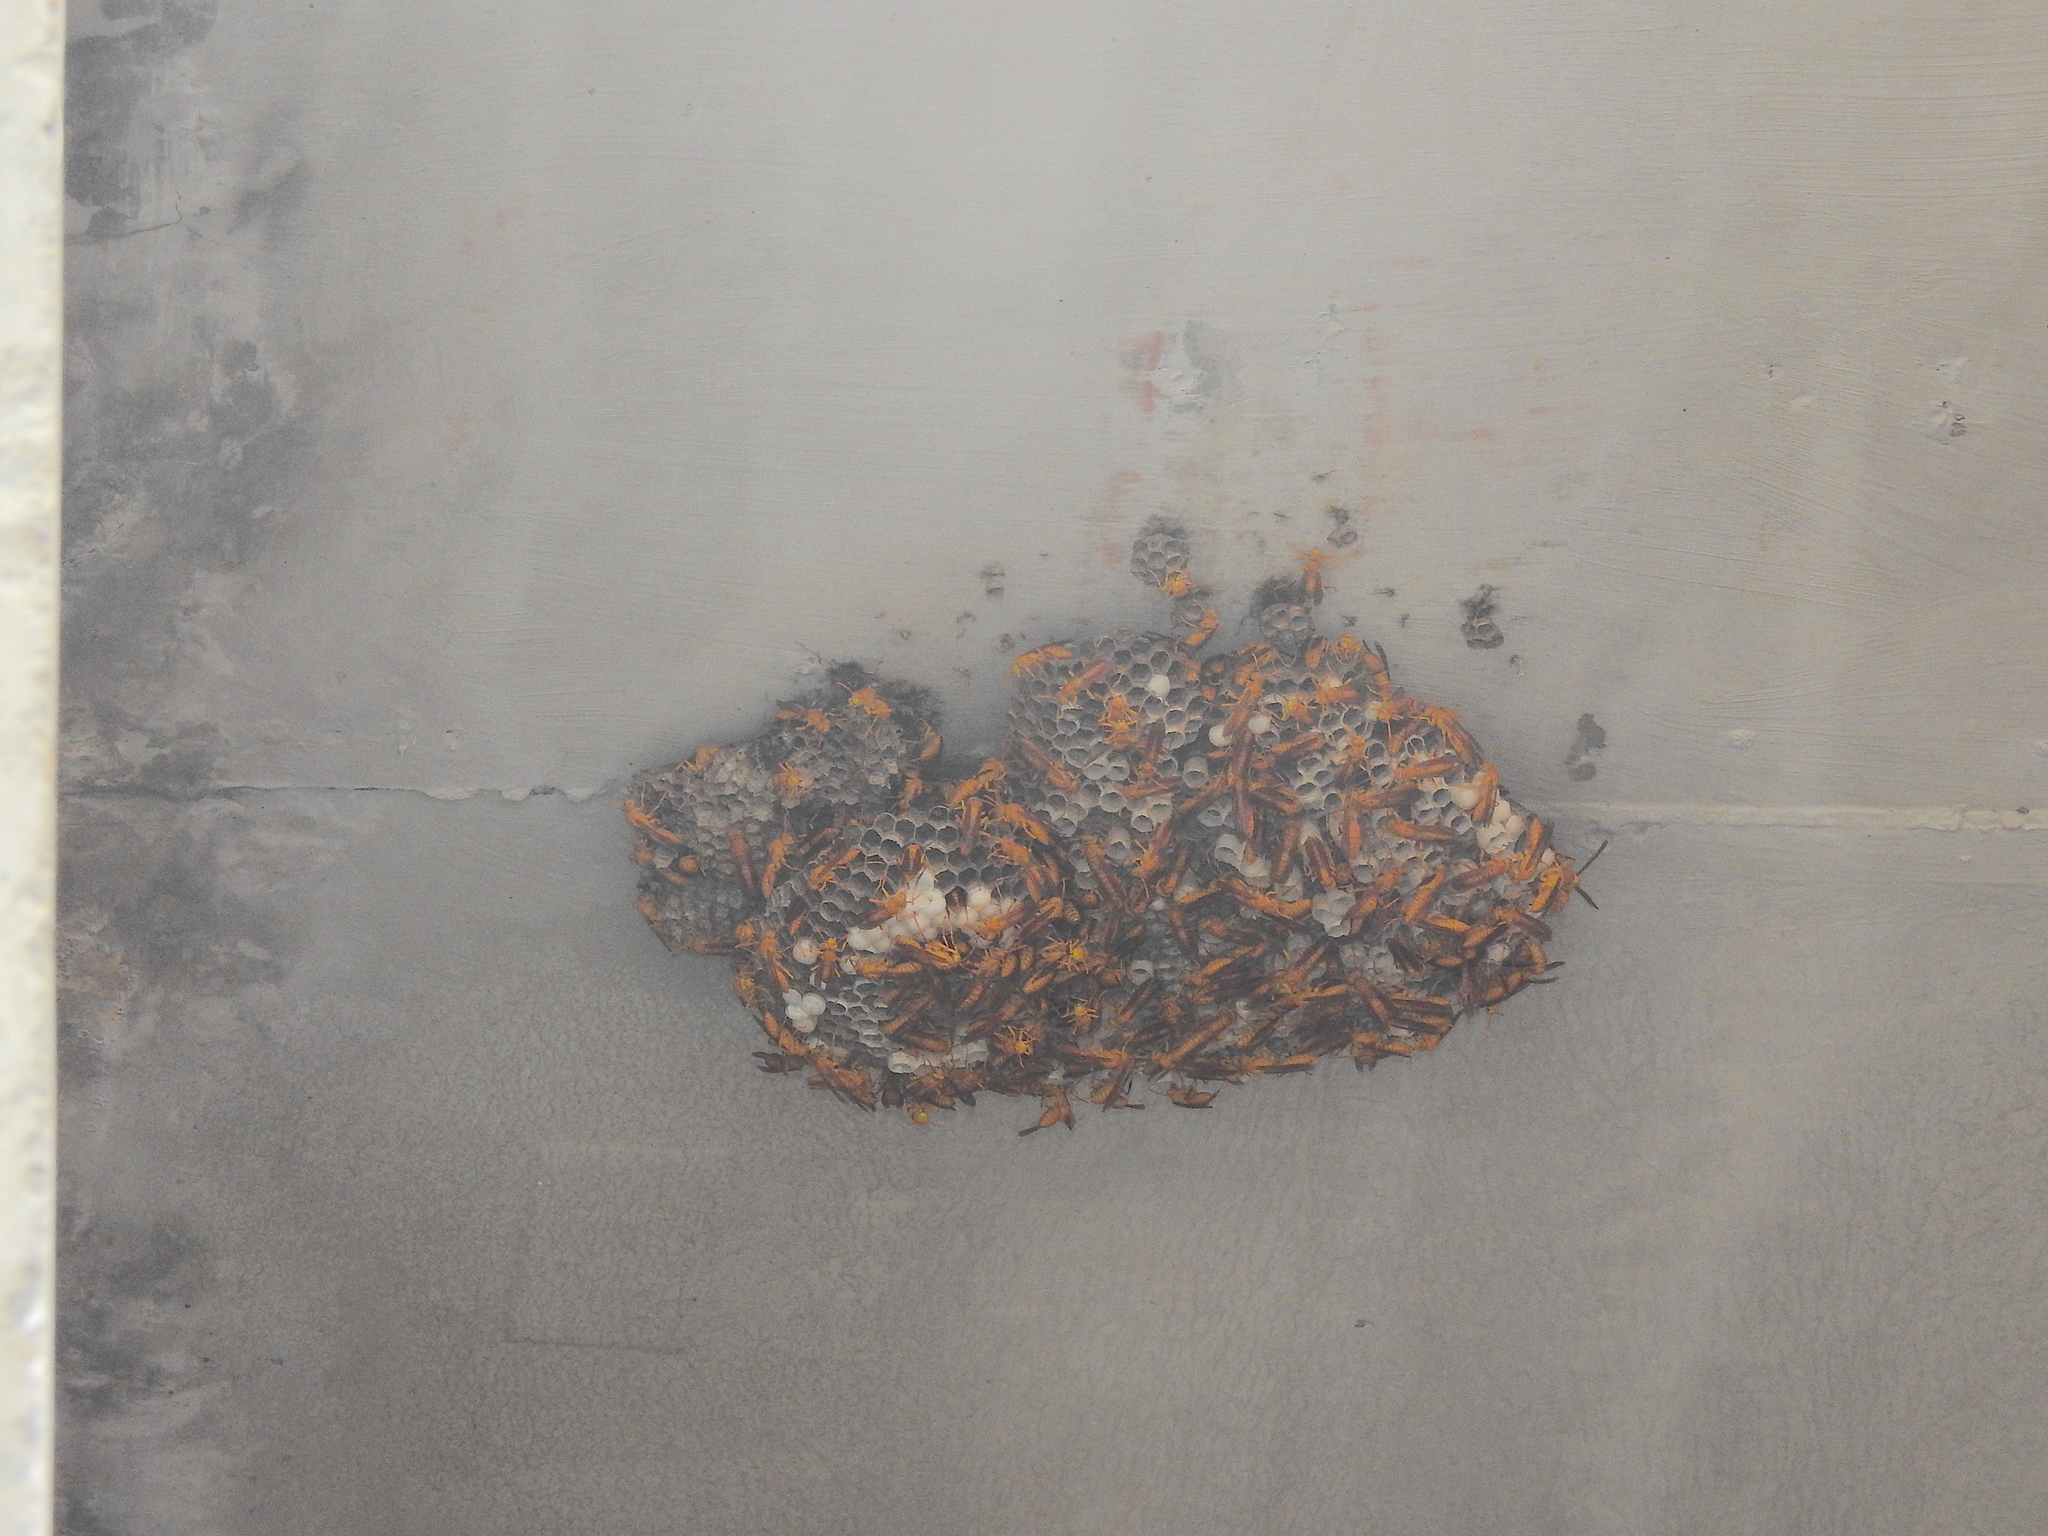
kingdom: Animalia
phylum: Arthropoda
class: Insecta
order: Hymenoptera
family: Eumenidae
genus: Polistes
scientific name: Polistes wattii
